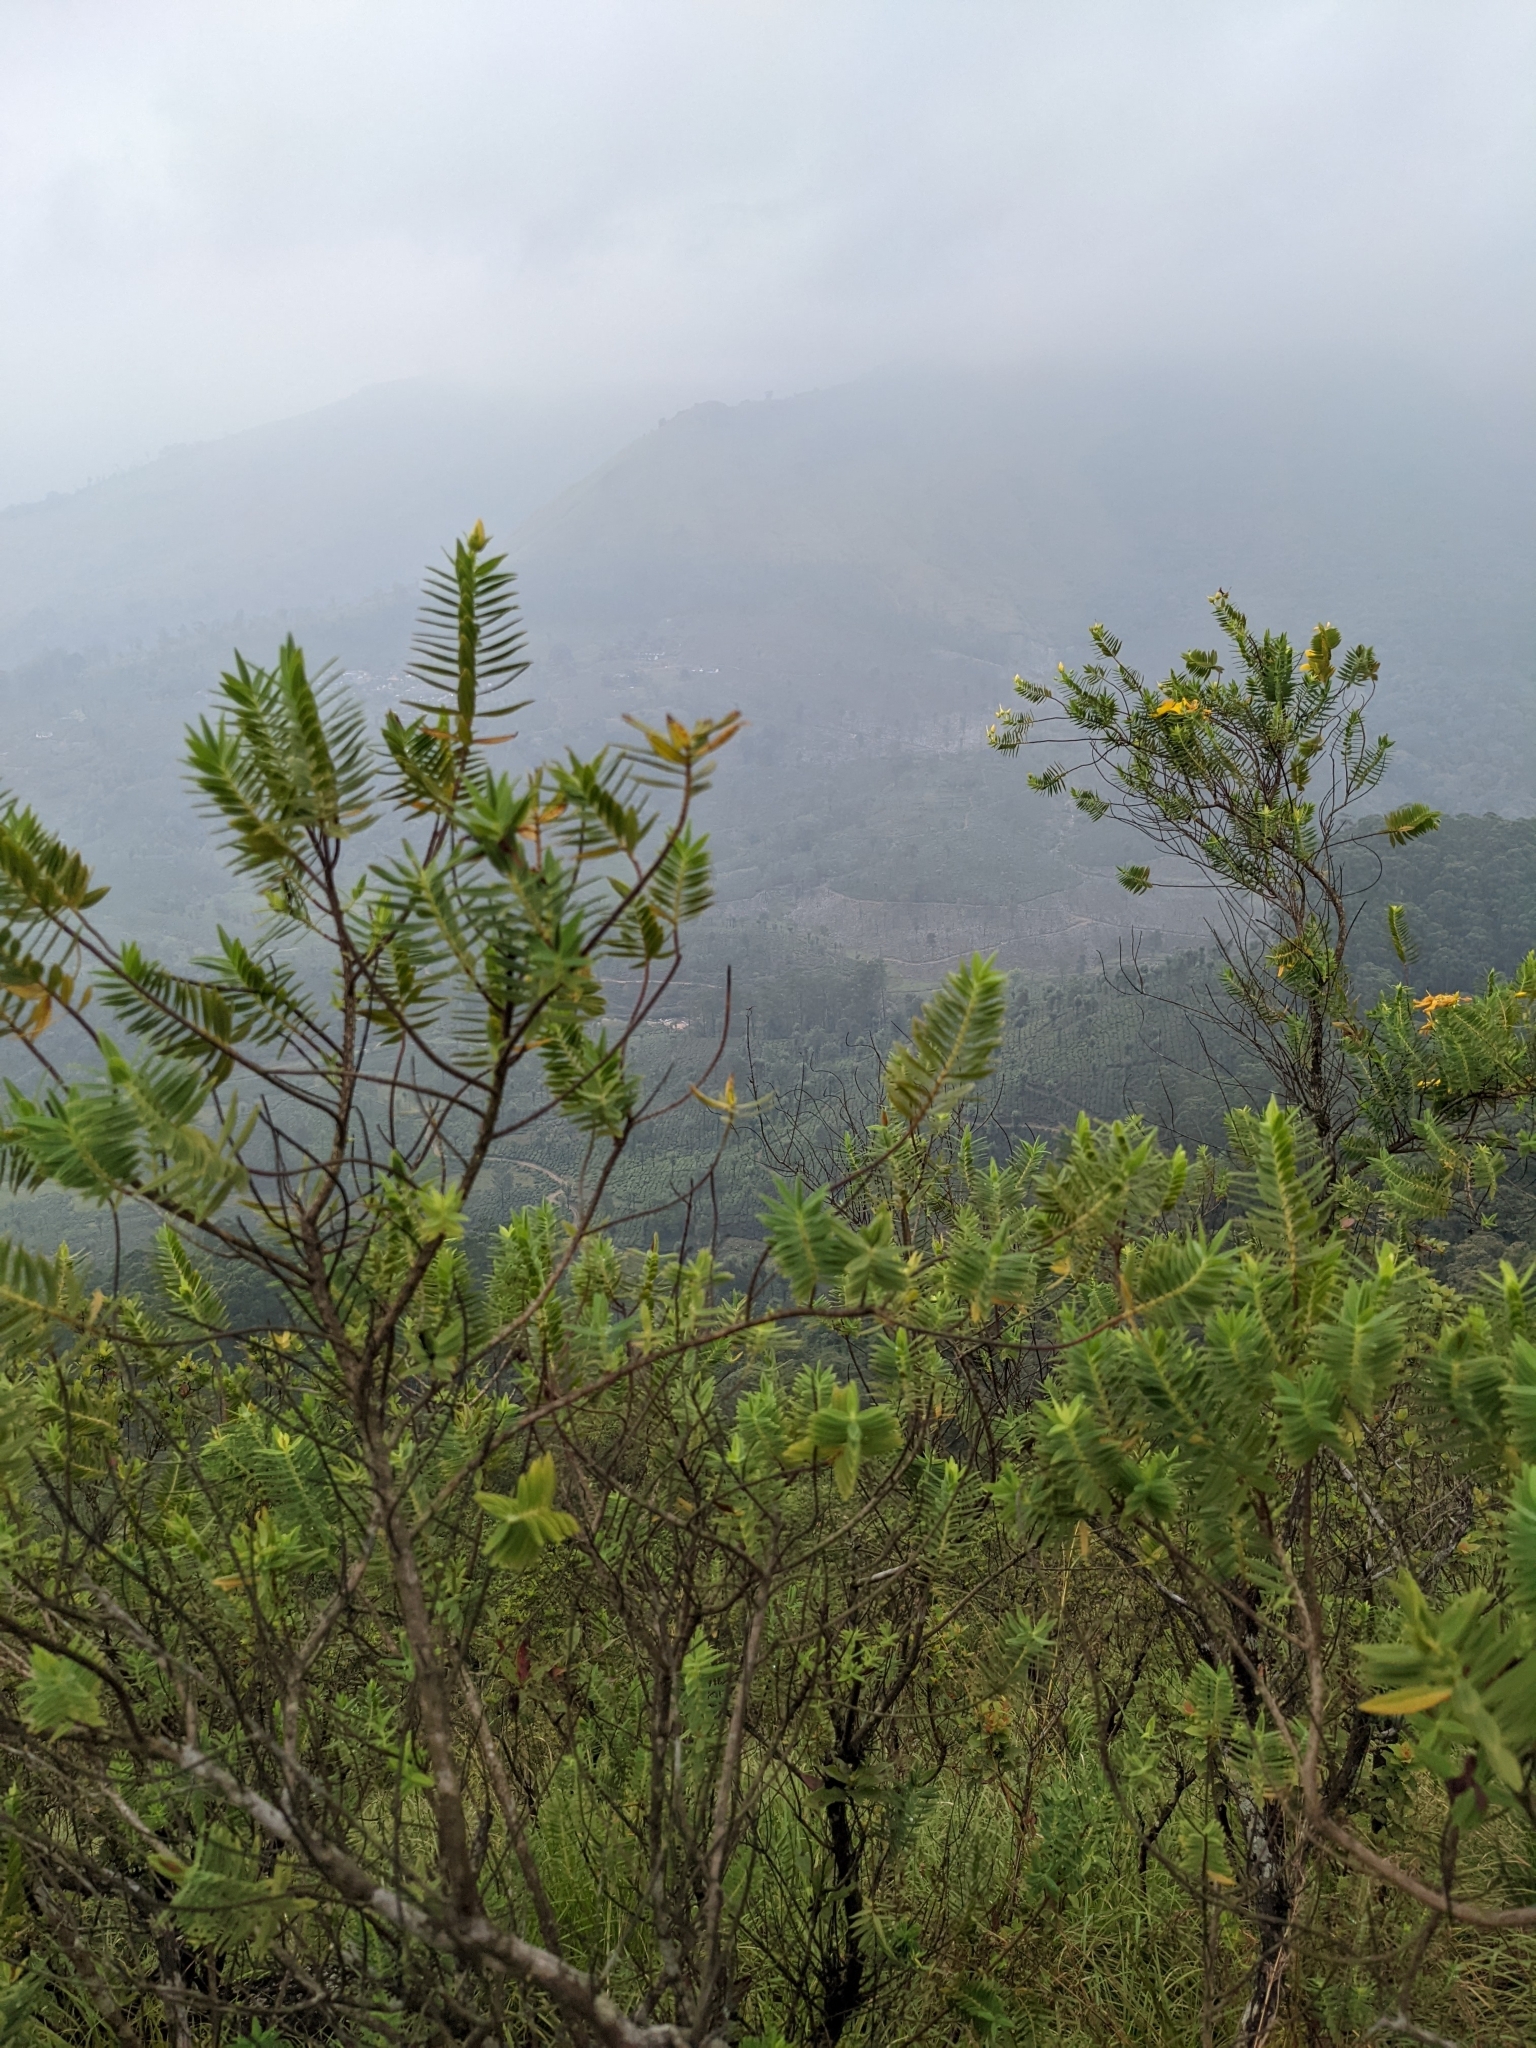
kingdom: Plantae
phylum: Tracheophyta
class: Magnoliopsida
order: Malpighiales
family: Hypericaceae
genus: Hypericum
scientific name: Hypericum mysurense
